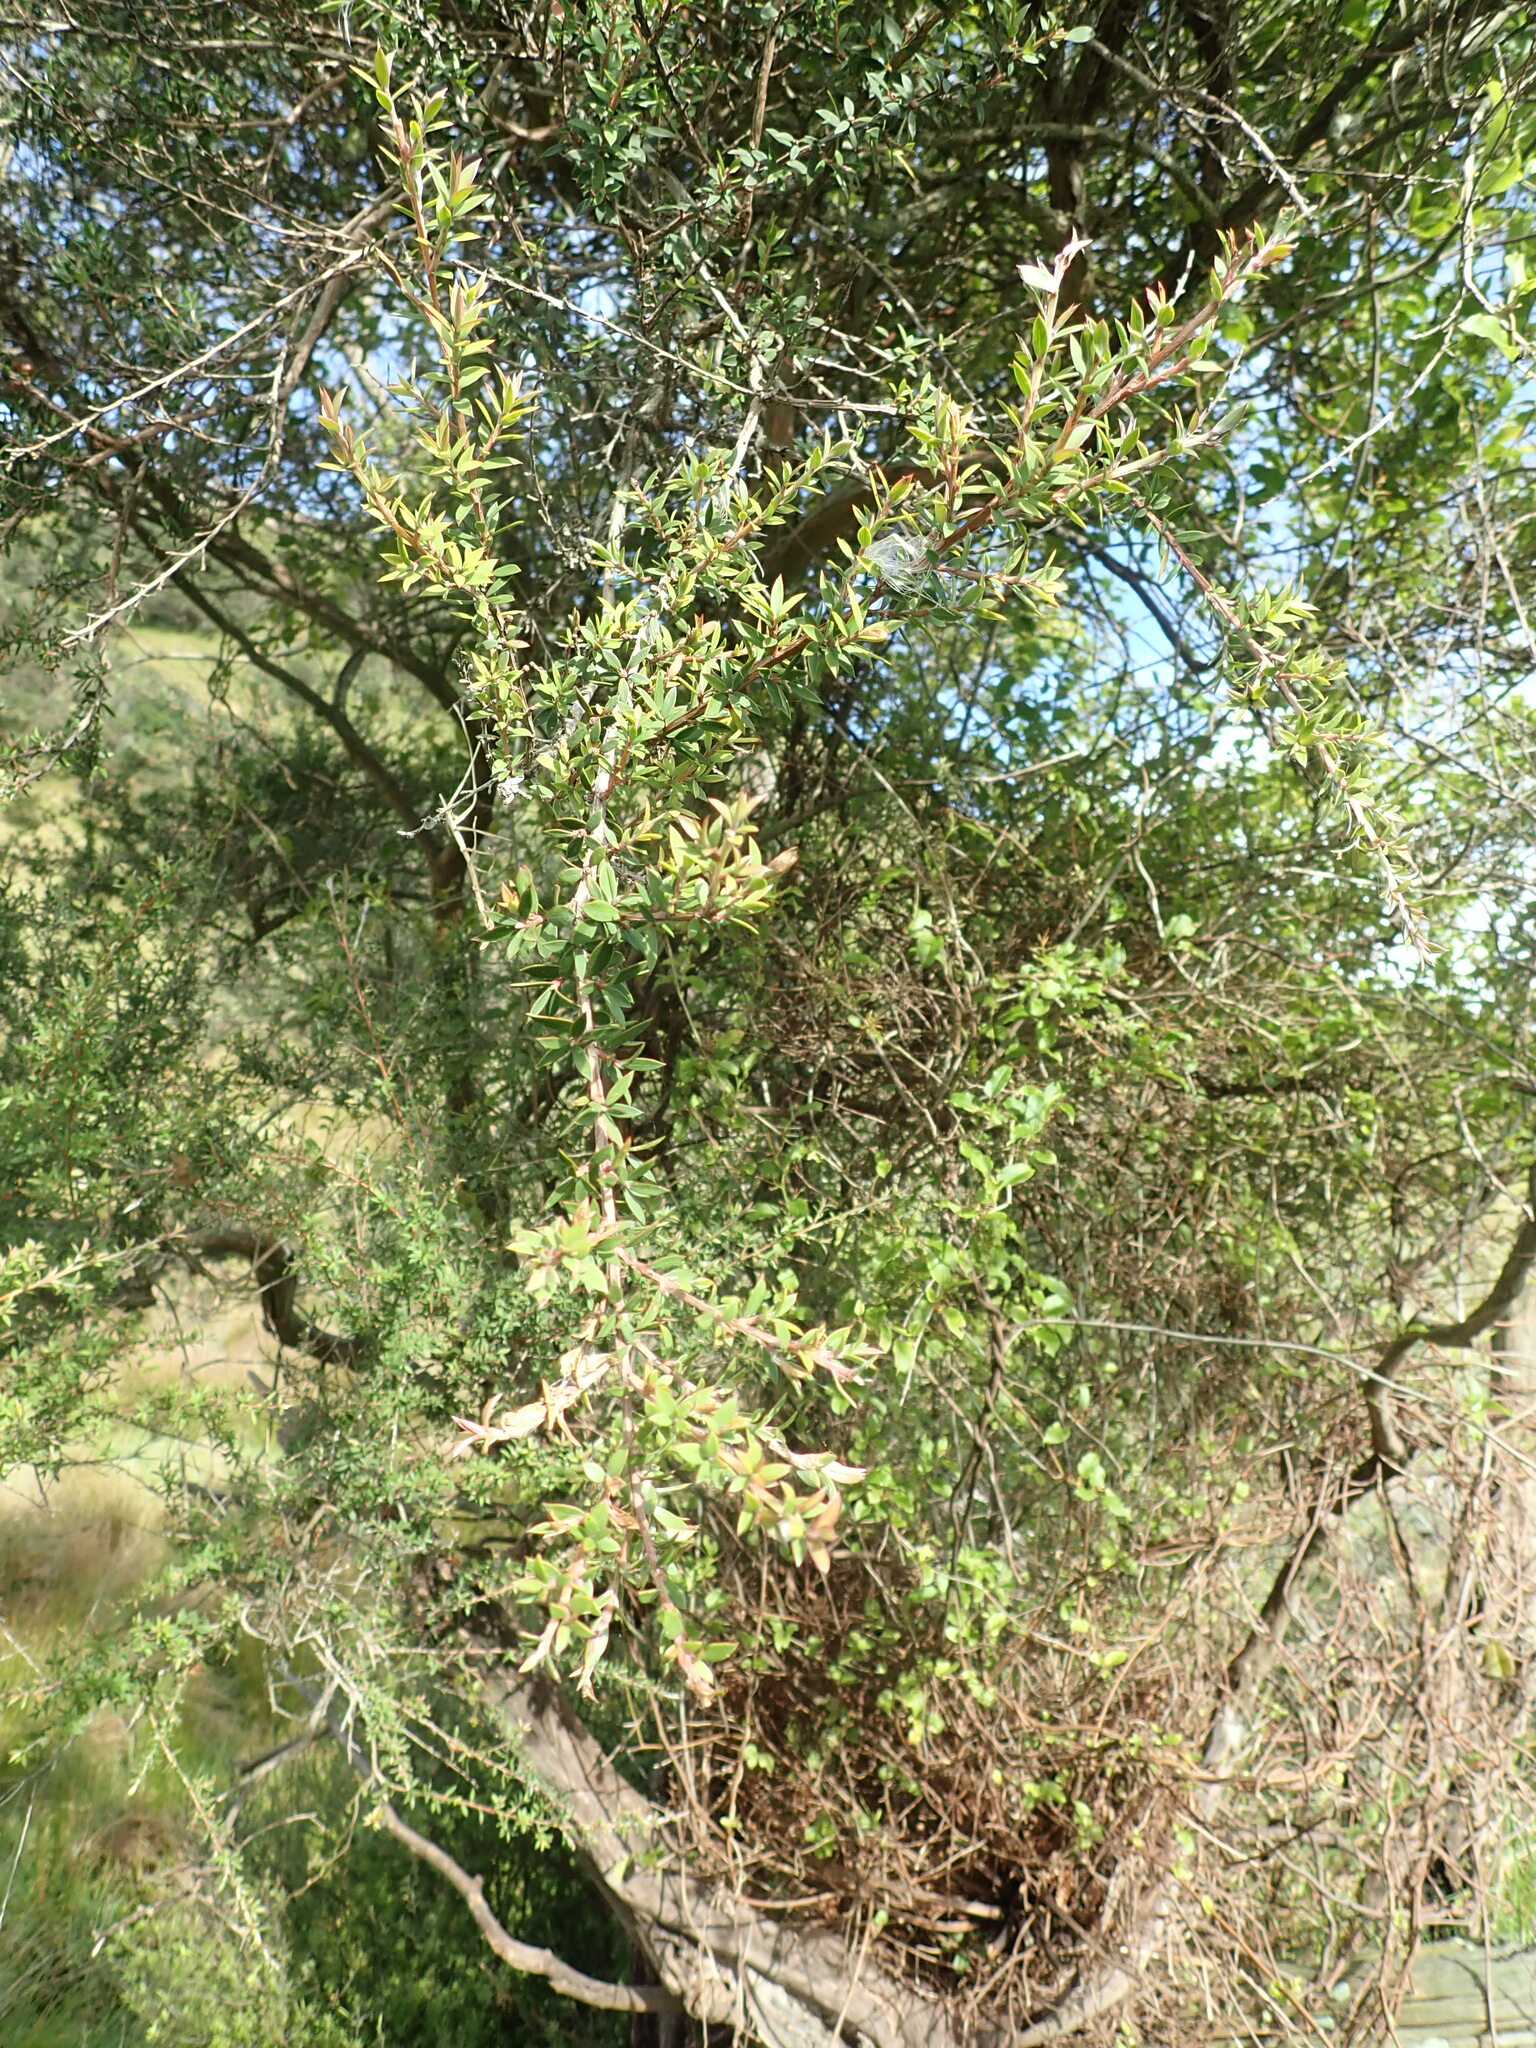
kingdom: Plantae
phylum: Tracheophyta
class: Magnoliopsida
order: Myrtales
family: Myrtaceae
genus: Kunzea
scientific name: Kunzea serotina
